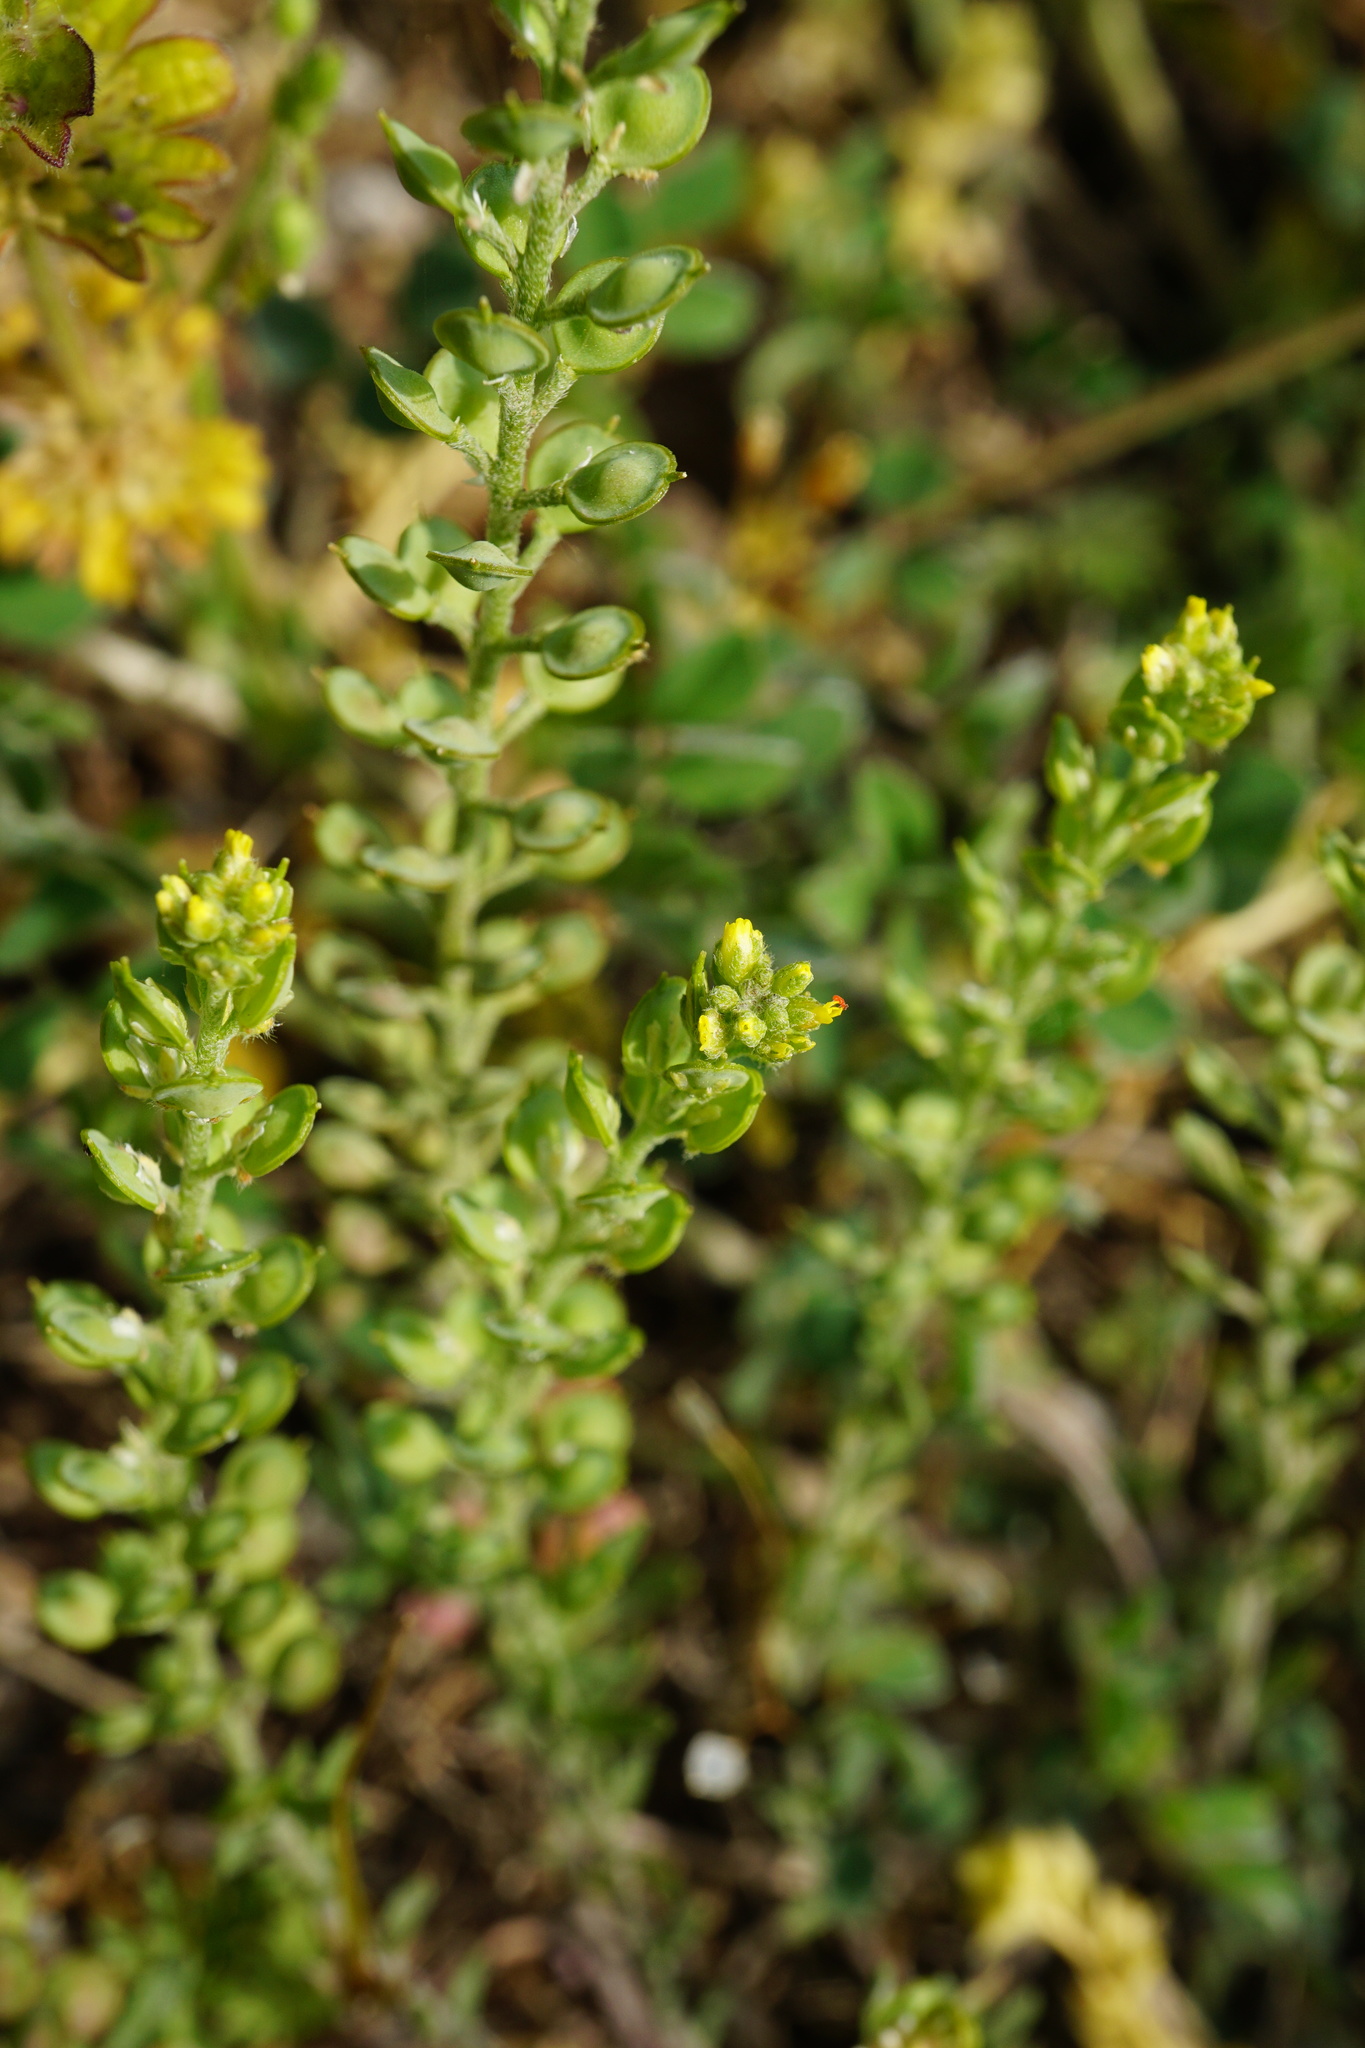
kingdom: Plantae
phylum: Tracheophyta
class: Magnoliopsida
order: Brassicales
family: Brassicaceae
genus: Alyssum
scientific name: Alyssum turkestanicum
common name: Desert alyssum
